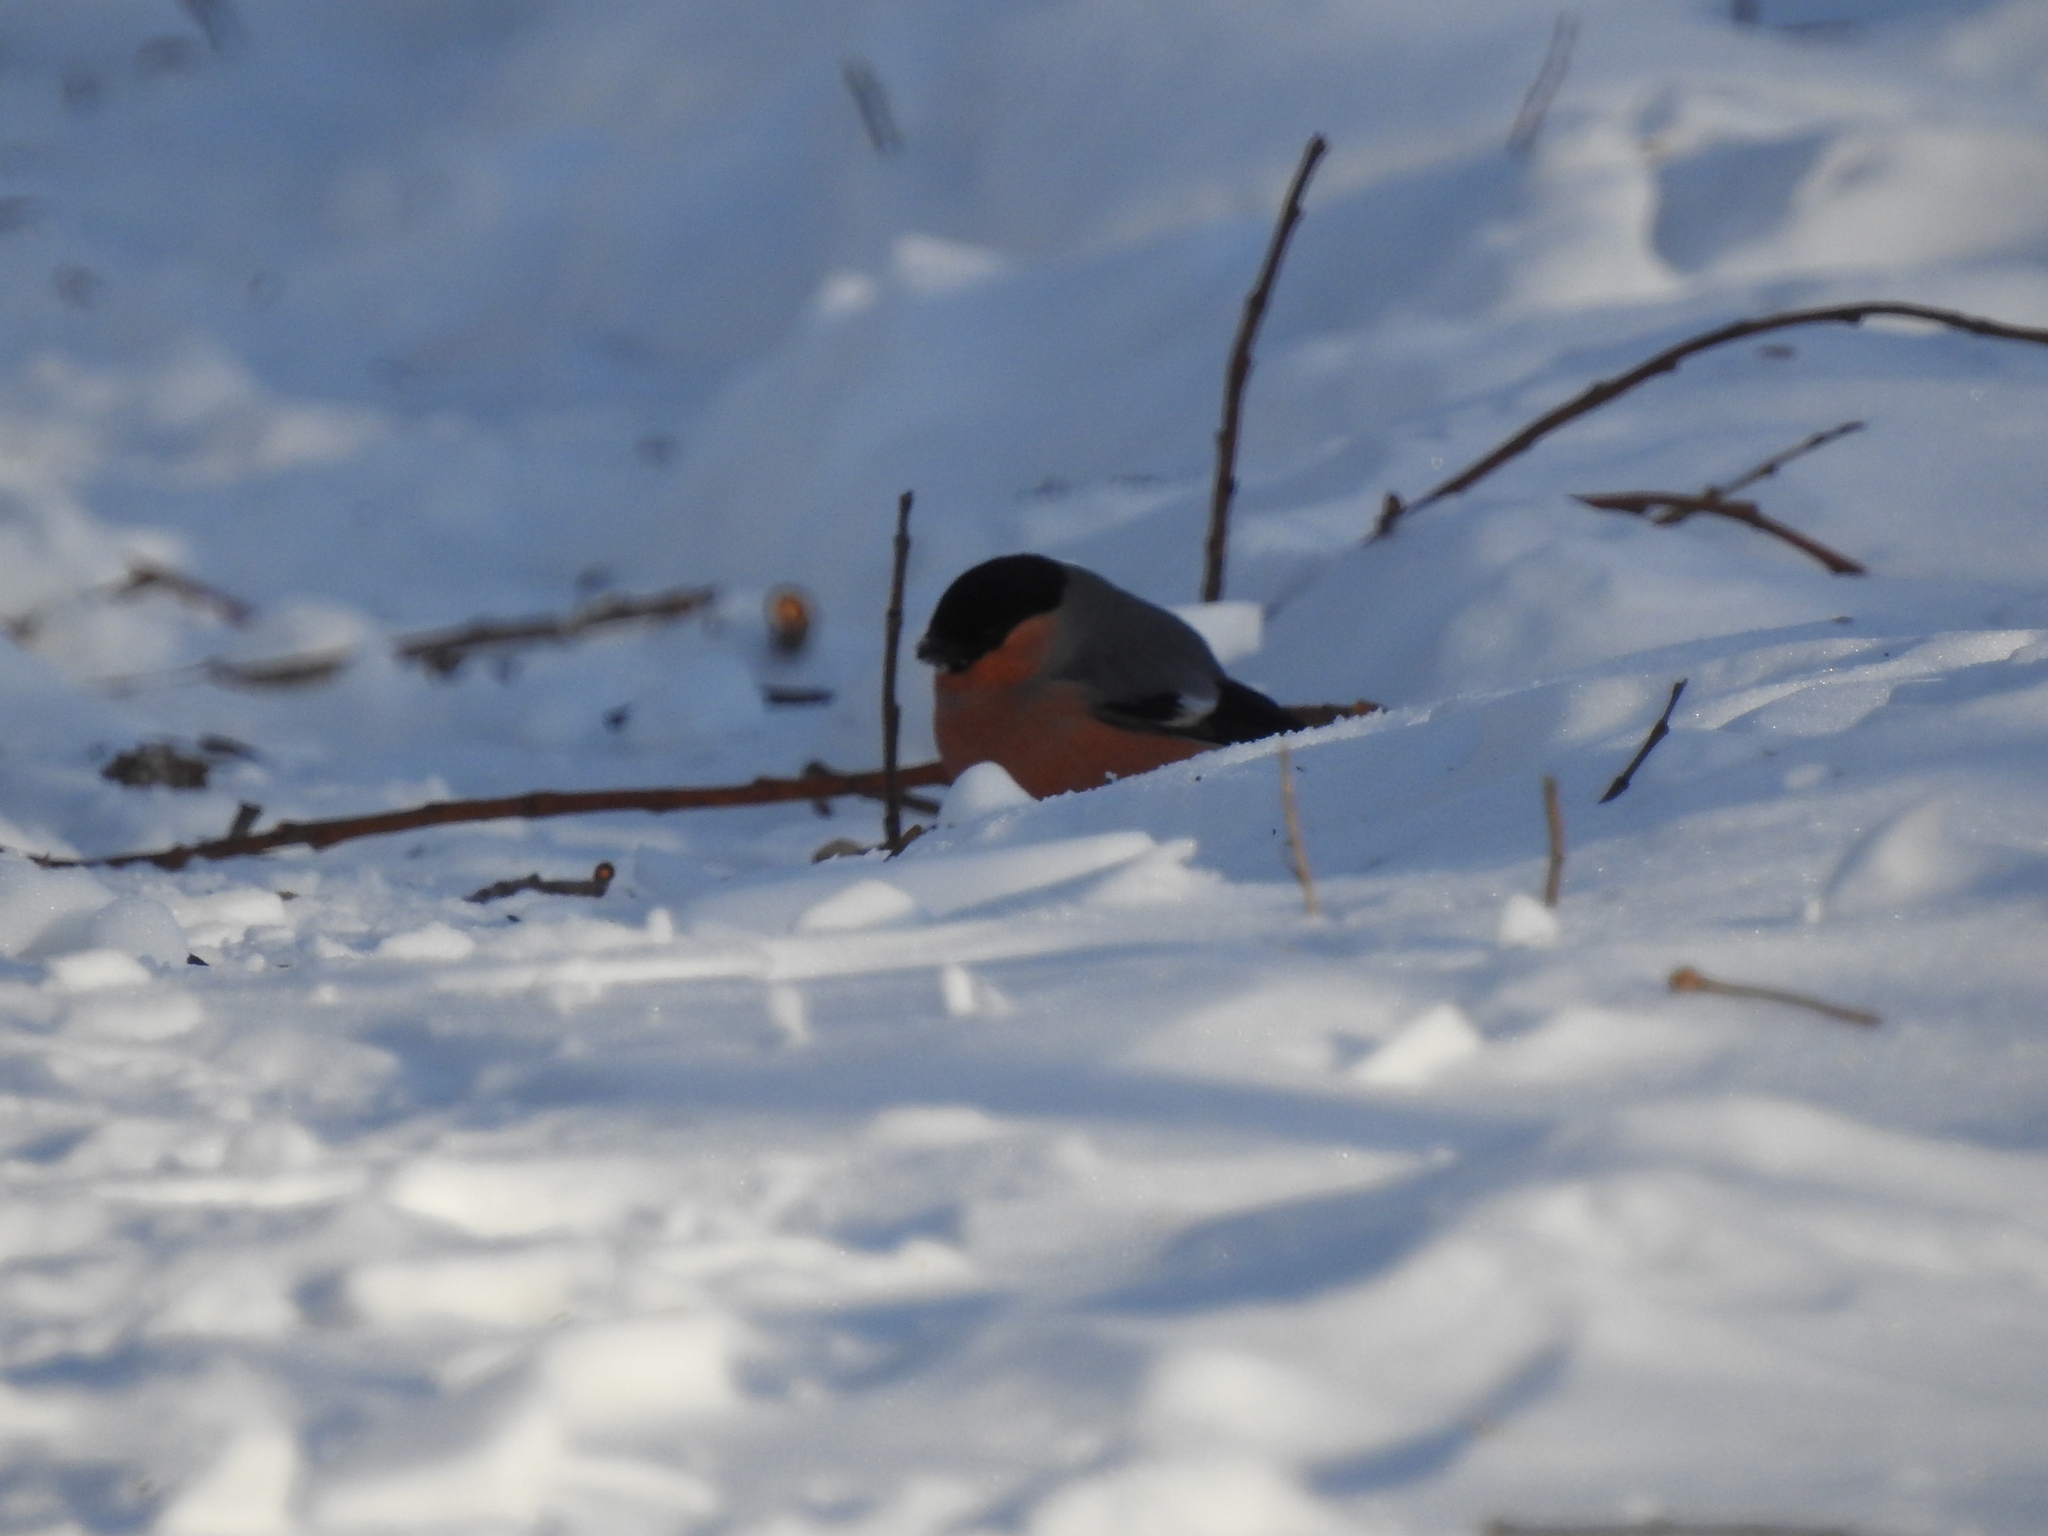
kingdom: Animalia
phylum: Chordata
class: Aves
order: Passeriformes
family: Fringillidae
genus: Pyrrhula
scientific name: Pyrrhula pyrrhula
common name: Eurasian bullfinch
